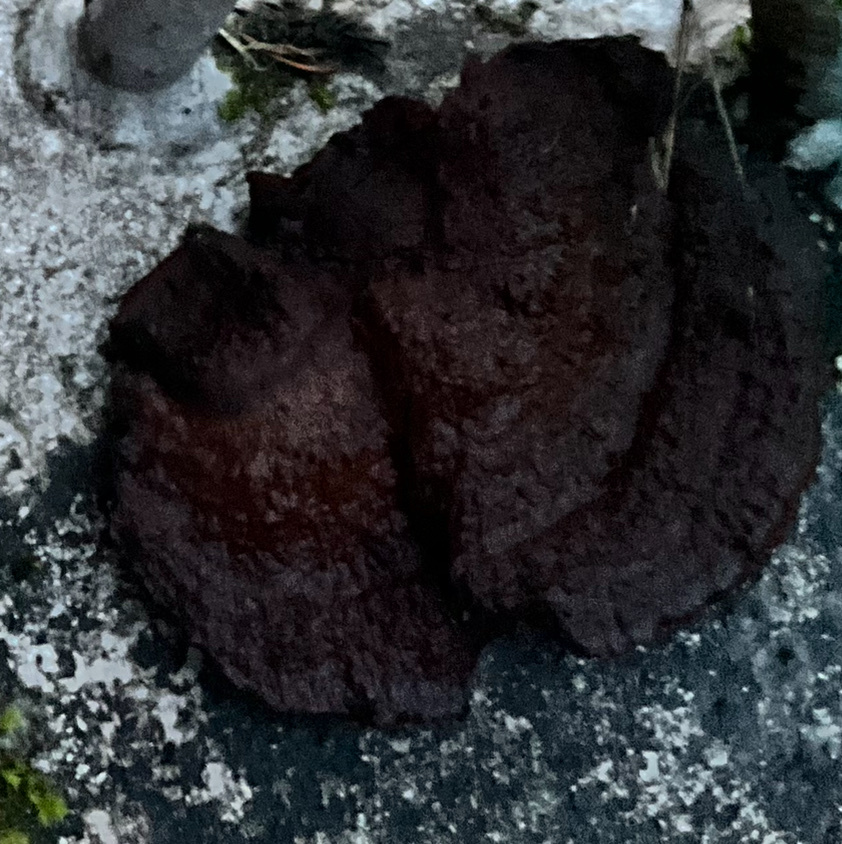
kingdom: Fungi
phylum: Basidiomycota
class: Agaricomycetes
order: Polyporales
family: Laetiporaceae
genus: Phaeolus
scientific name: Phaeolus schweinitzii
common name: Dyer's mazegill
